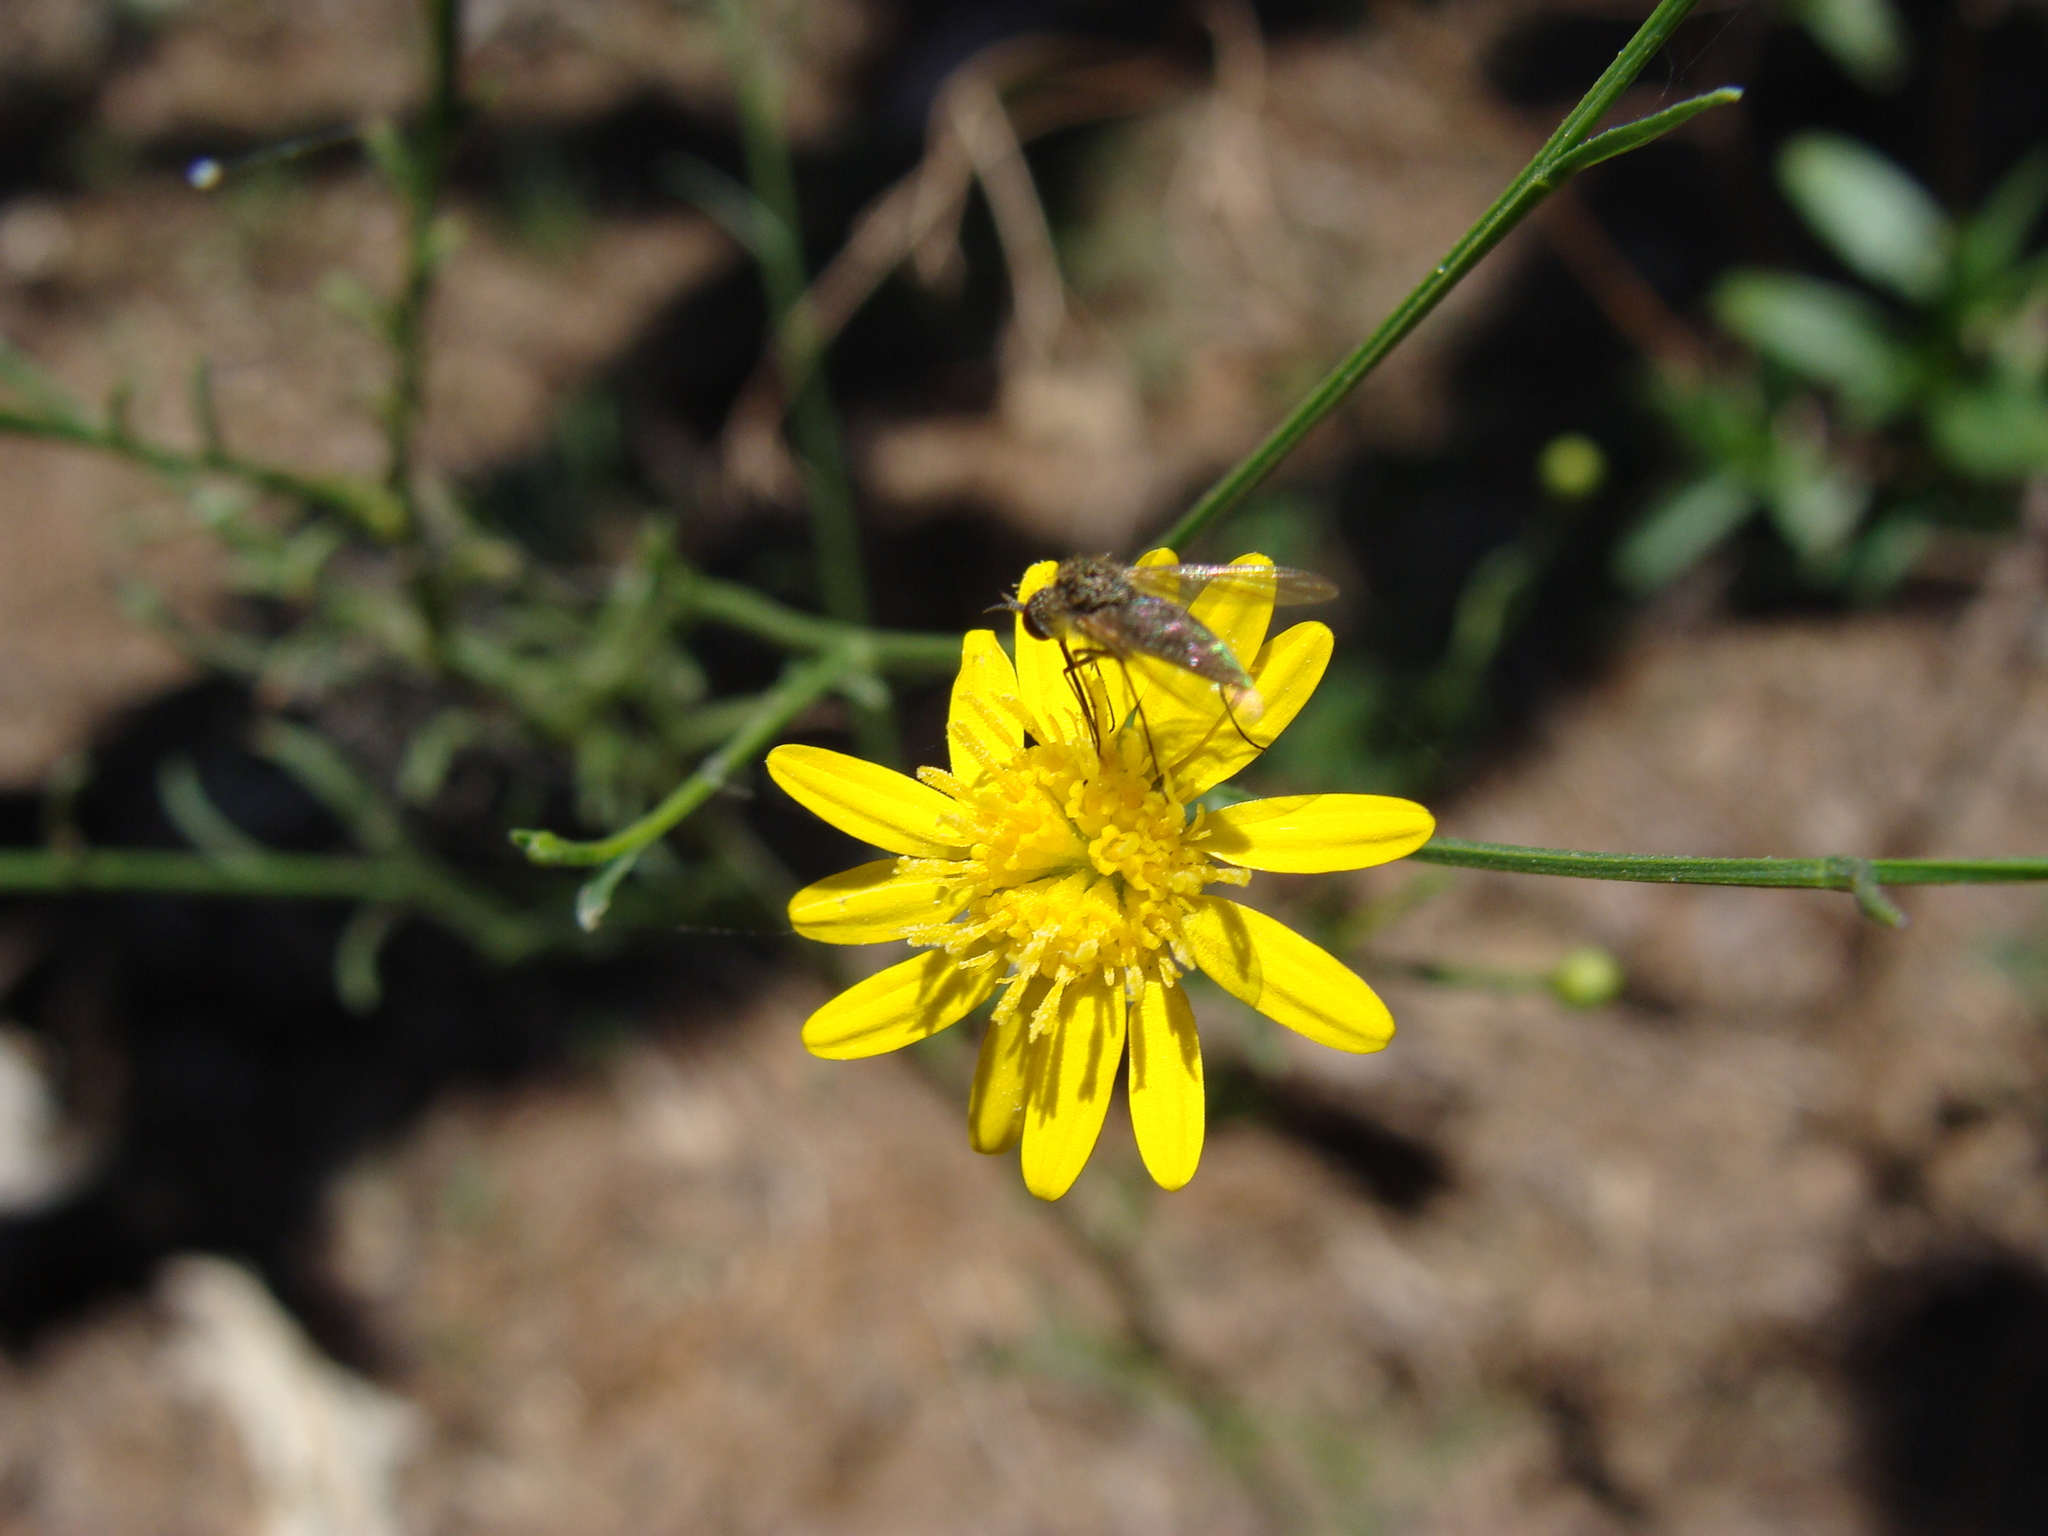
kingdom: Plantae
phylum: Tracheophyta
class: Magnoliopsida
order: Asterales
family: Asteraceae
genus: Gutierrezia
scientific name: Gutierrezia texana
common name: Texas snakeweed
